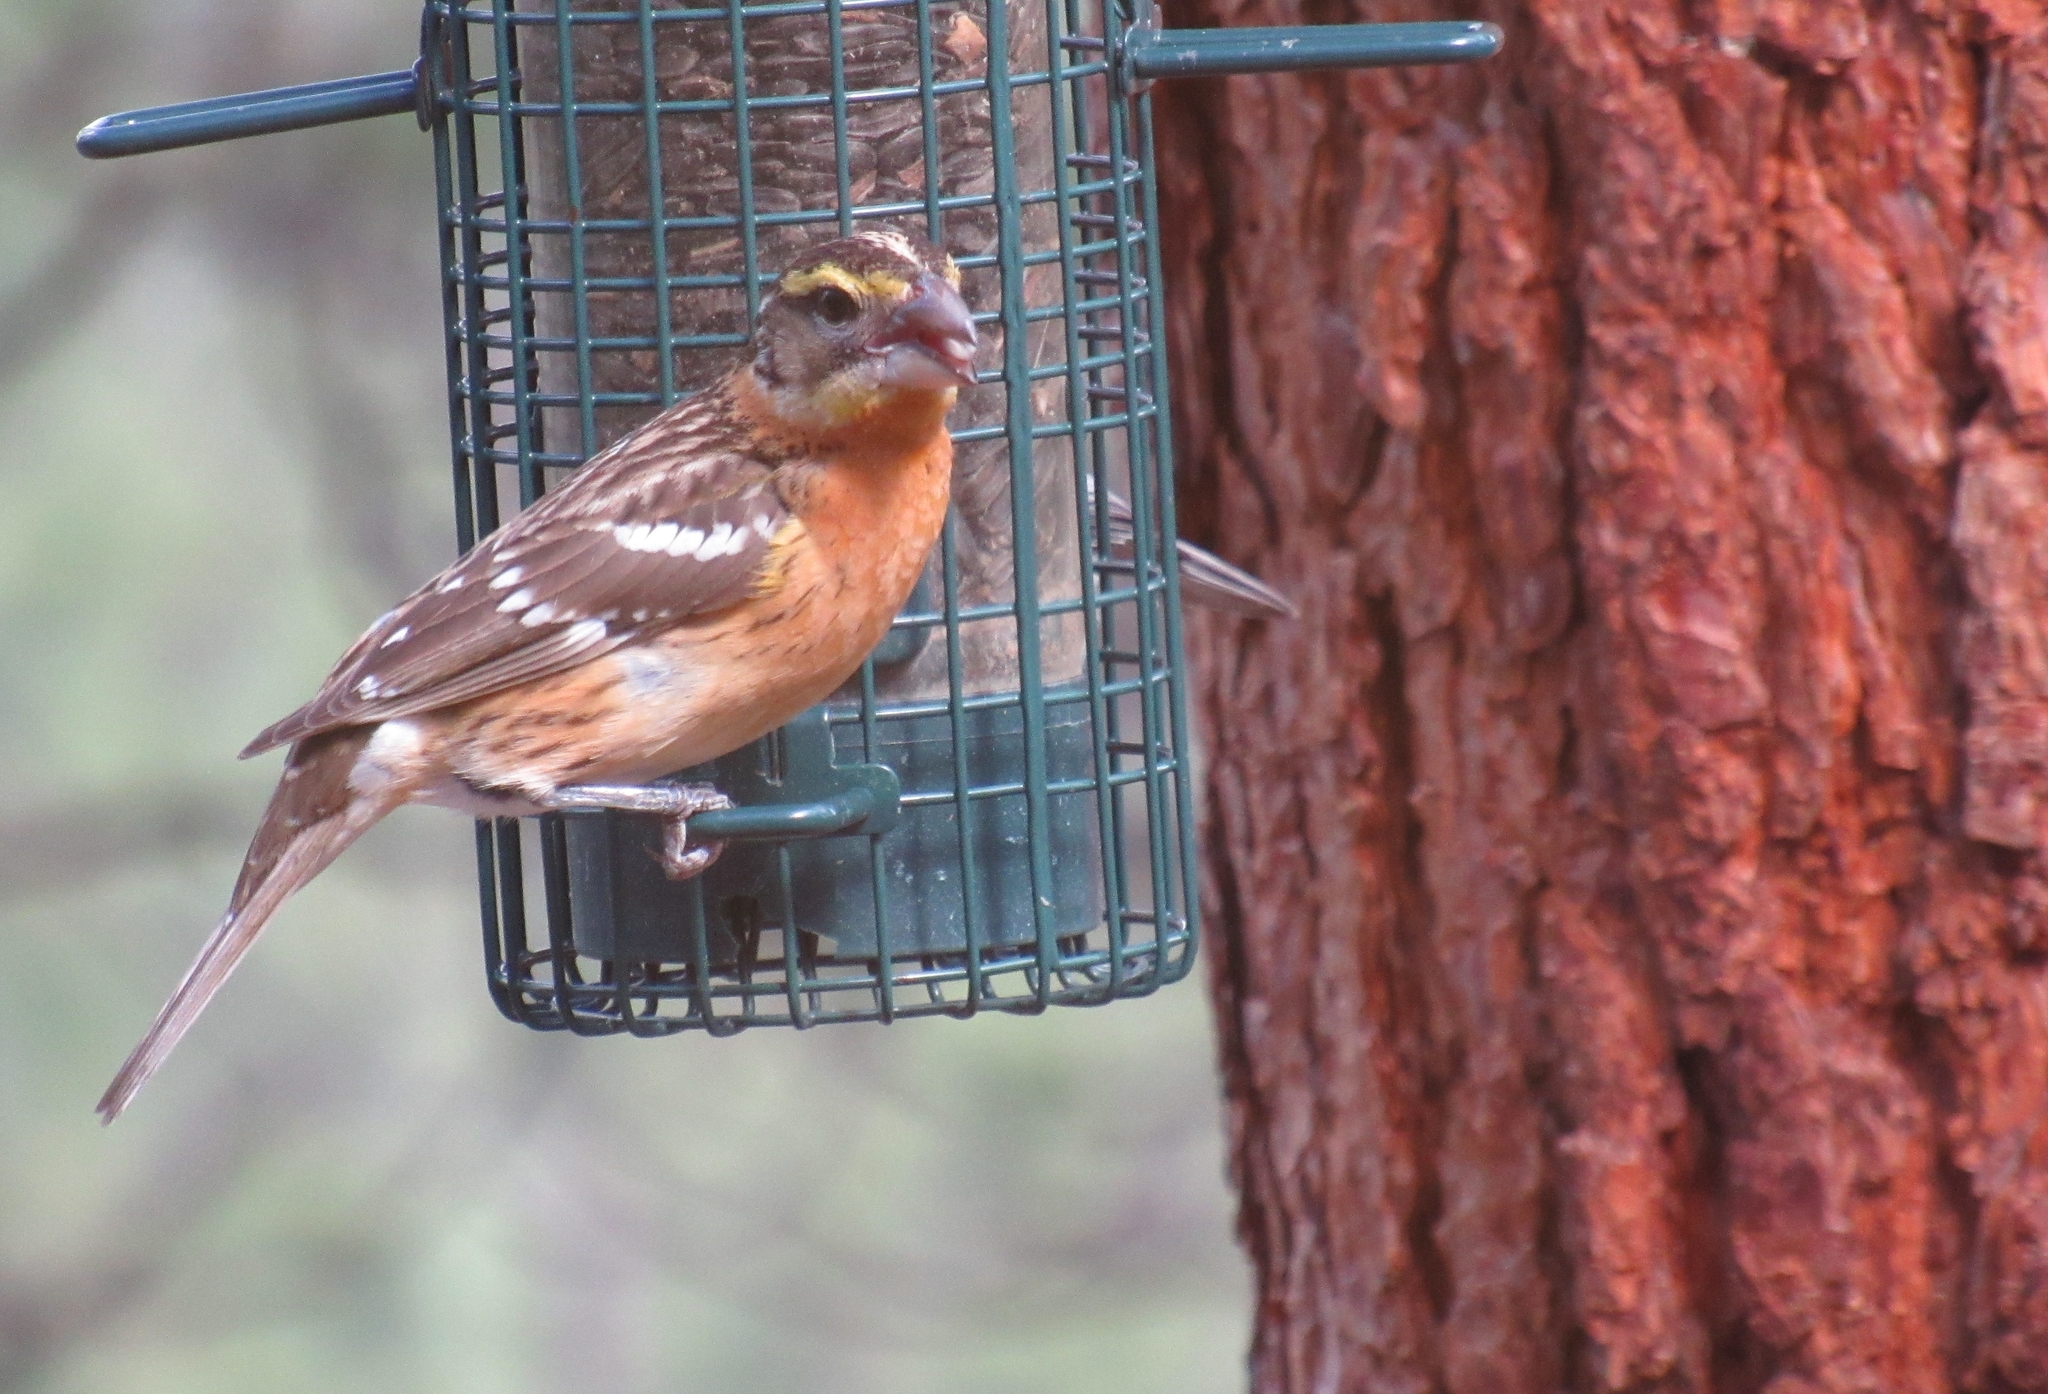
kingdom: Animalia
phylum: Chordata
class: Aves
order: Passeriformes
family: Cardinalidae
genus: Pheucticus
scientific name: Pheucticus melanocephalus
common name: Black-headed grosbeak
